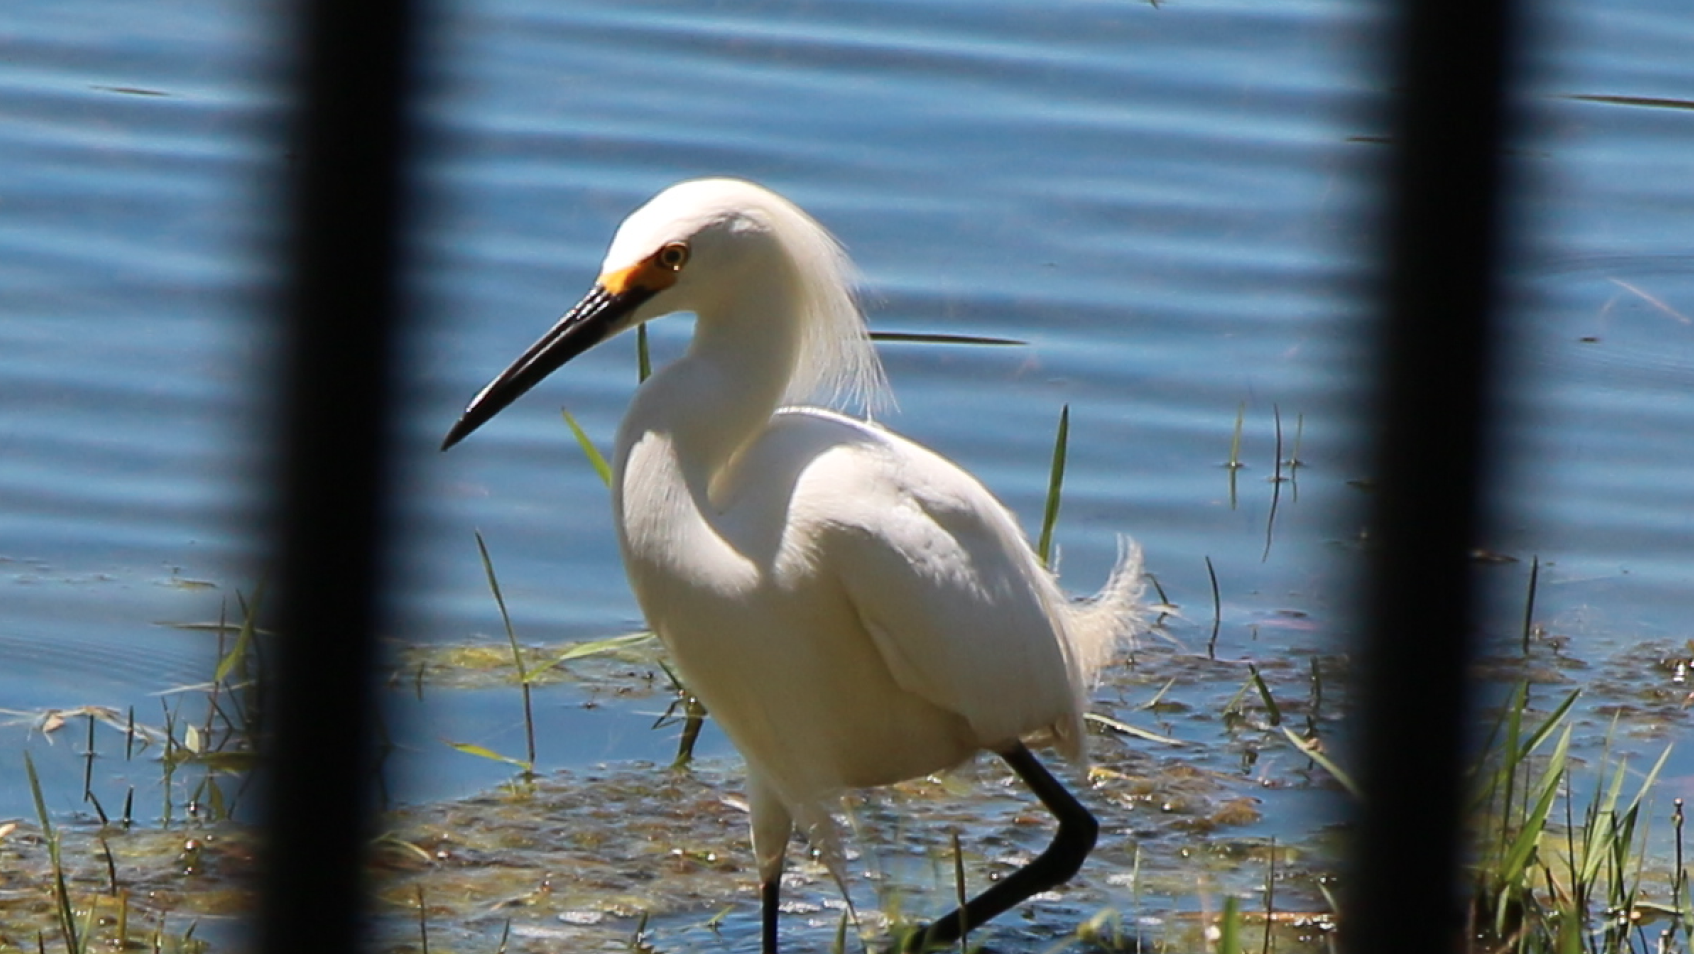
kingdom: Animalia
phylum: Chordata
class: Aves
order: Pelecaniformes
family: Ardeidae
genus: Egretta
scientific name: Egretta thula
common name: Snowy egret
